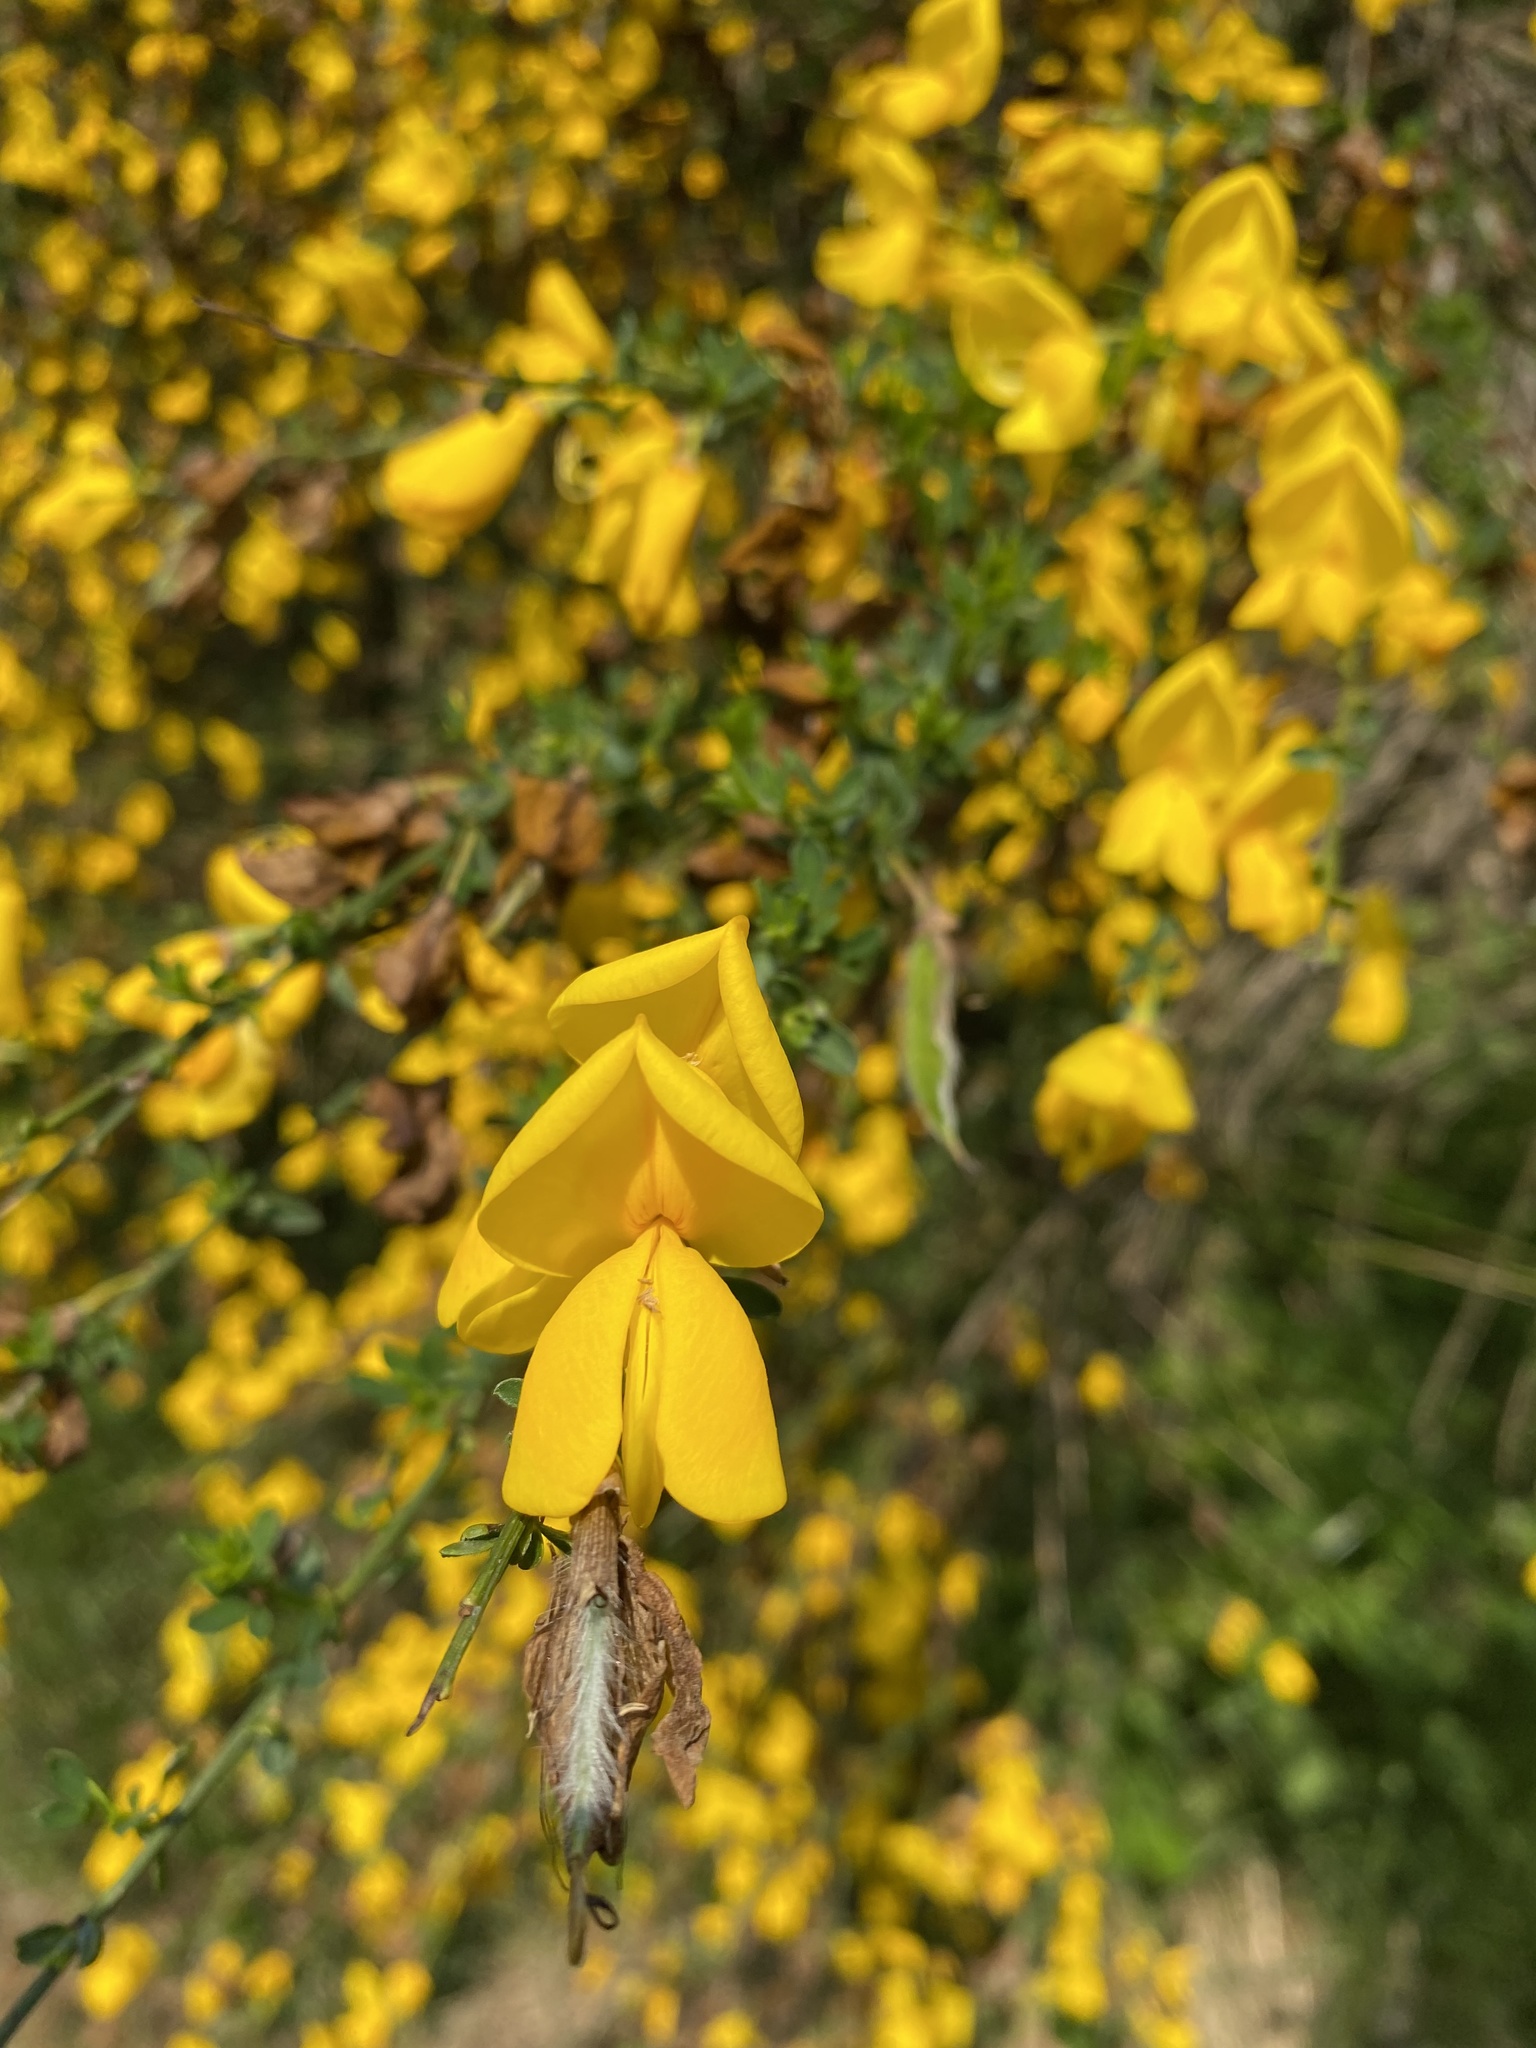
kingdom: Plantae
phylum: Tracheophyta
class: Magnoliopsida
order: Fabales
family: Fabaceae
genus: Cytisus
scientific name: Cytisus scoparius
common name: Scotch broom
